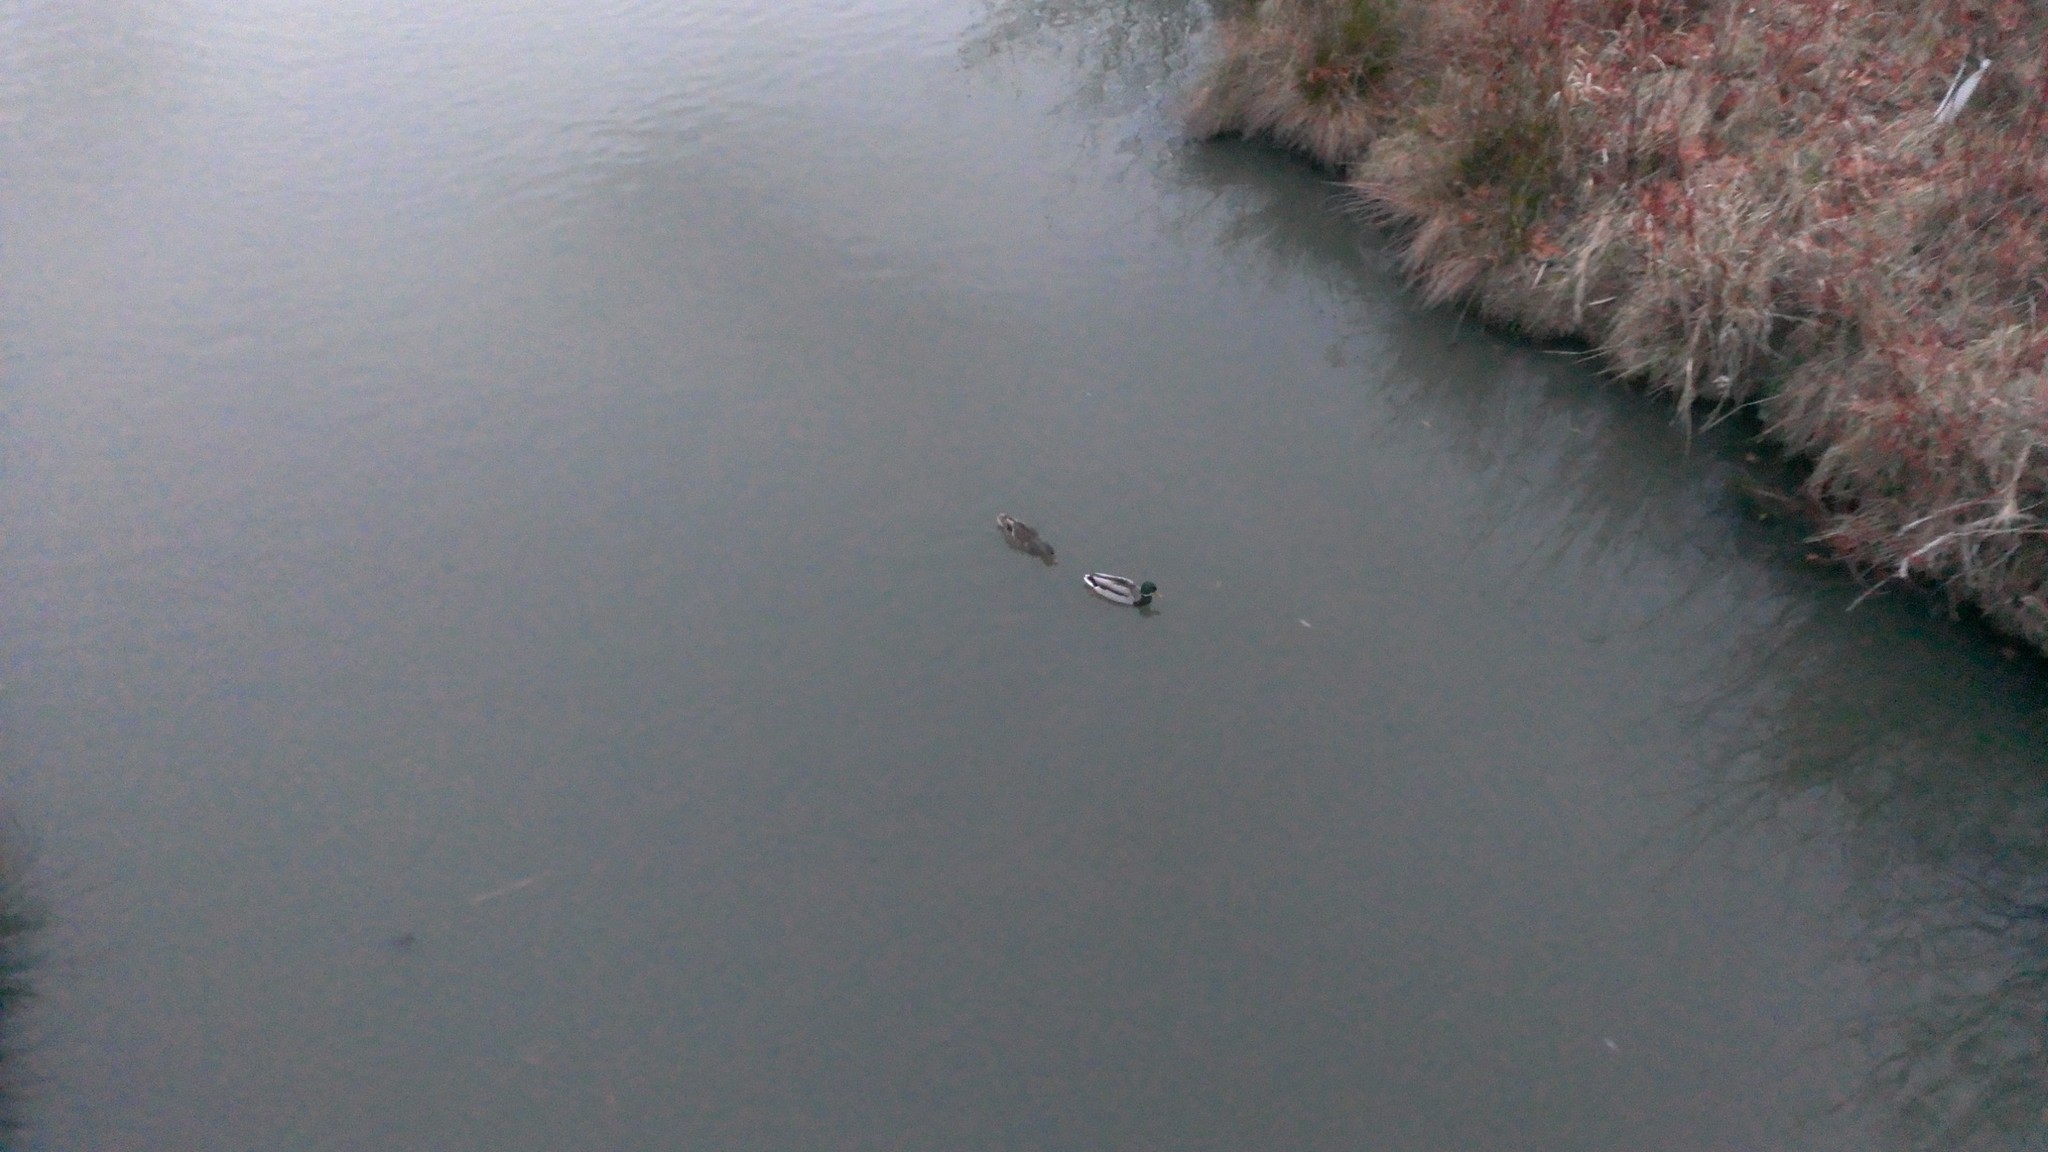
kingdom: Animalia
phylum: Chordata
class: Aves
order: Anseriformes
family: Anatidae
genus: Anas
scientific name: Anas platyrhynchos
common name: Mallard
